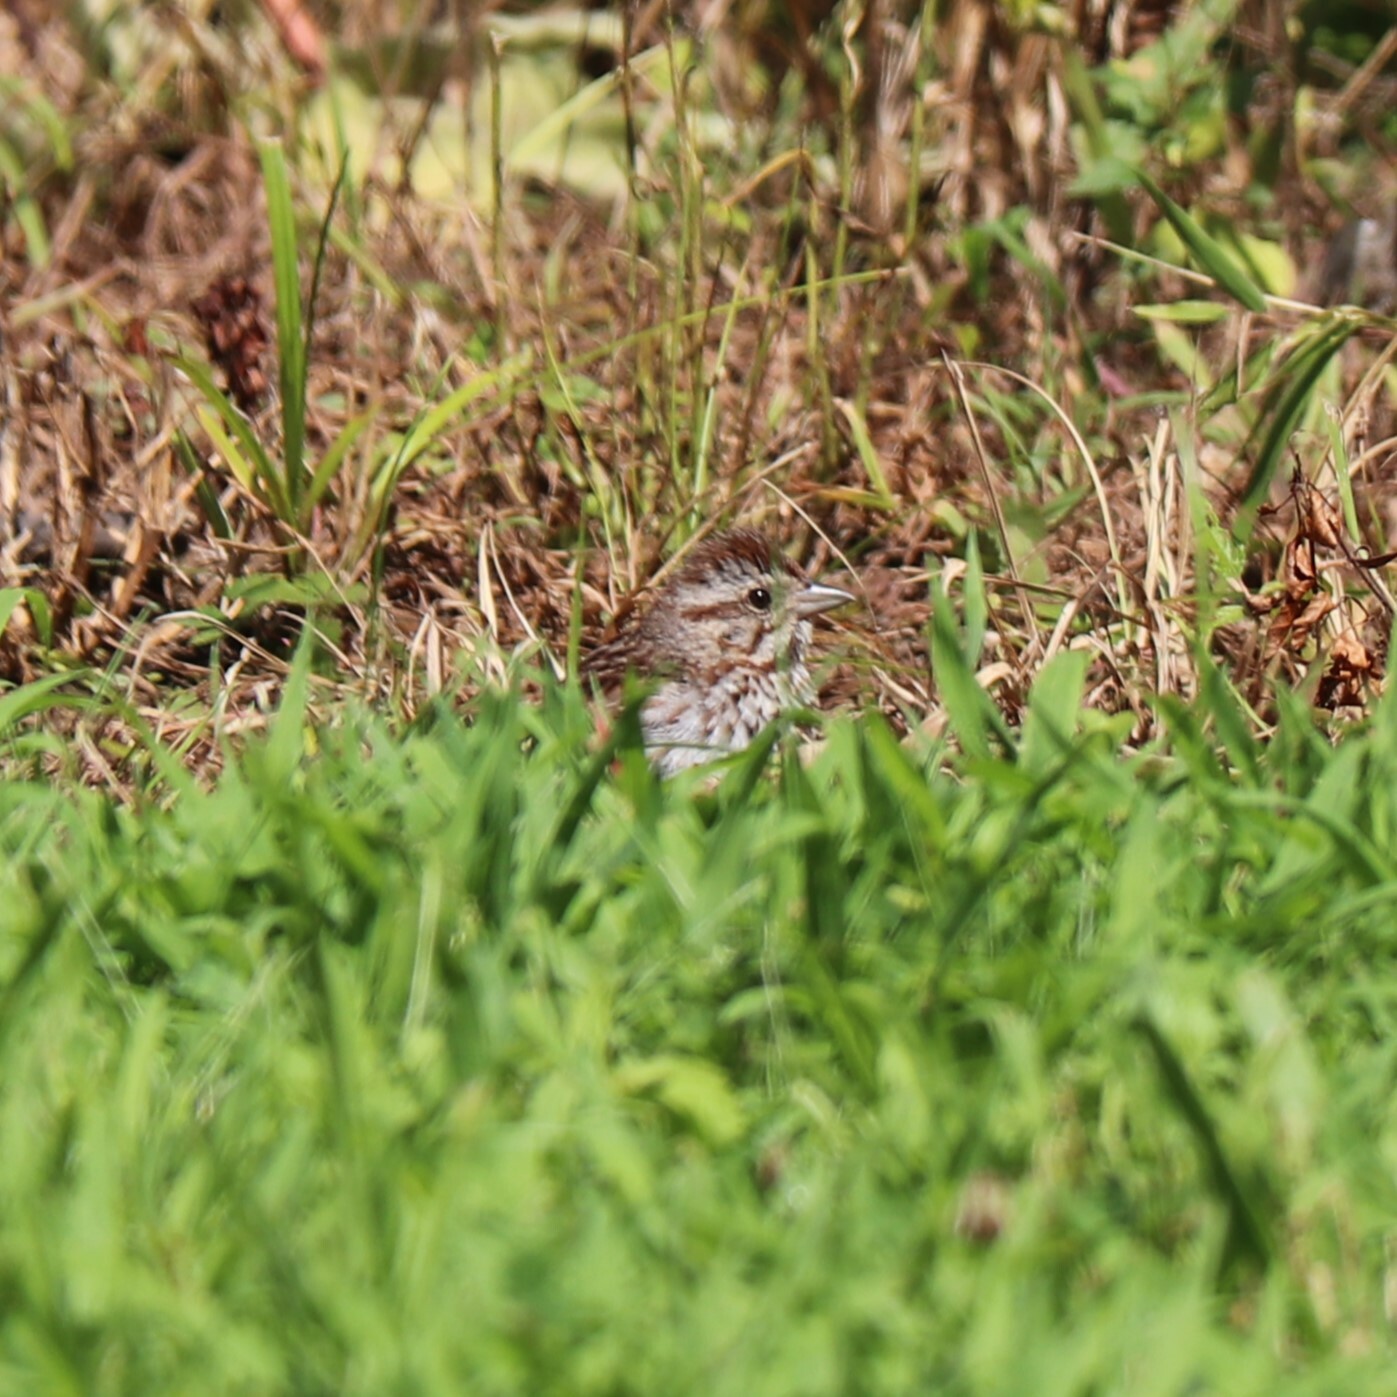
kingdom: Animalia
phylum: Chordata
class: Aves
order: Passeriformes
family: Passerellidae
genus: Melospiza
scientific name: Melospiza melodia
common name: Song sparrow
